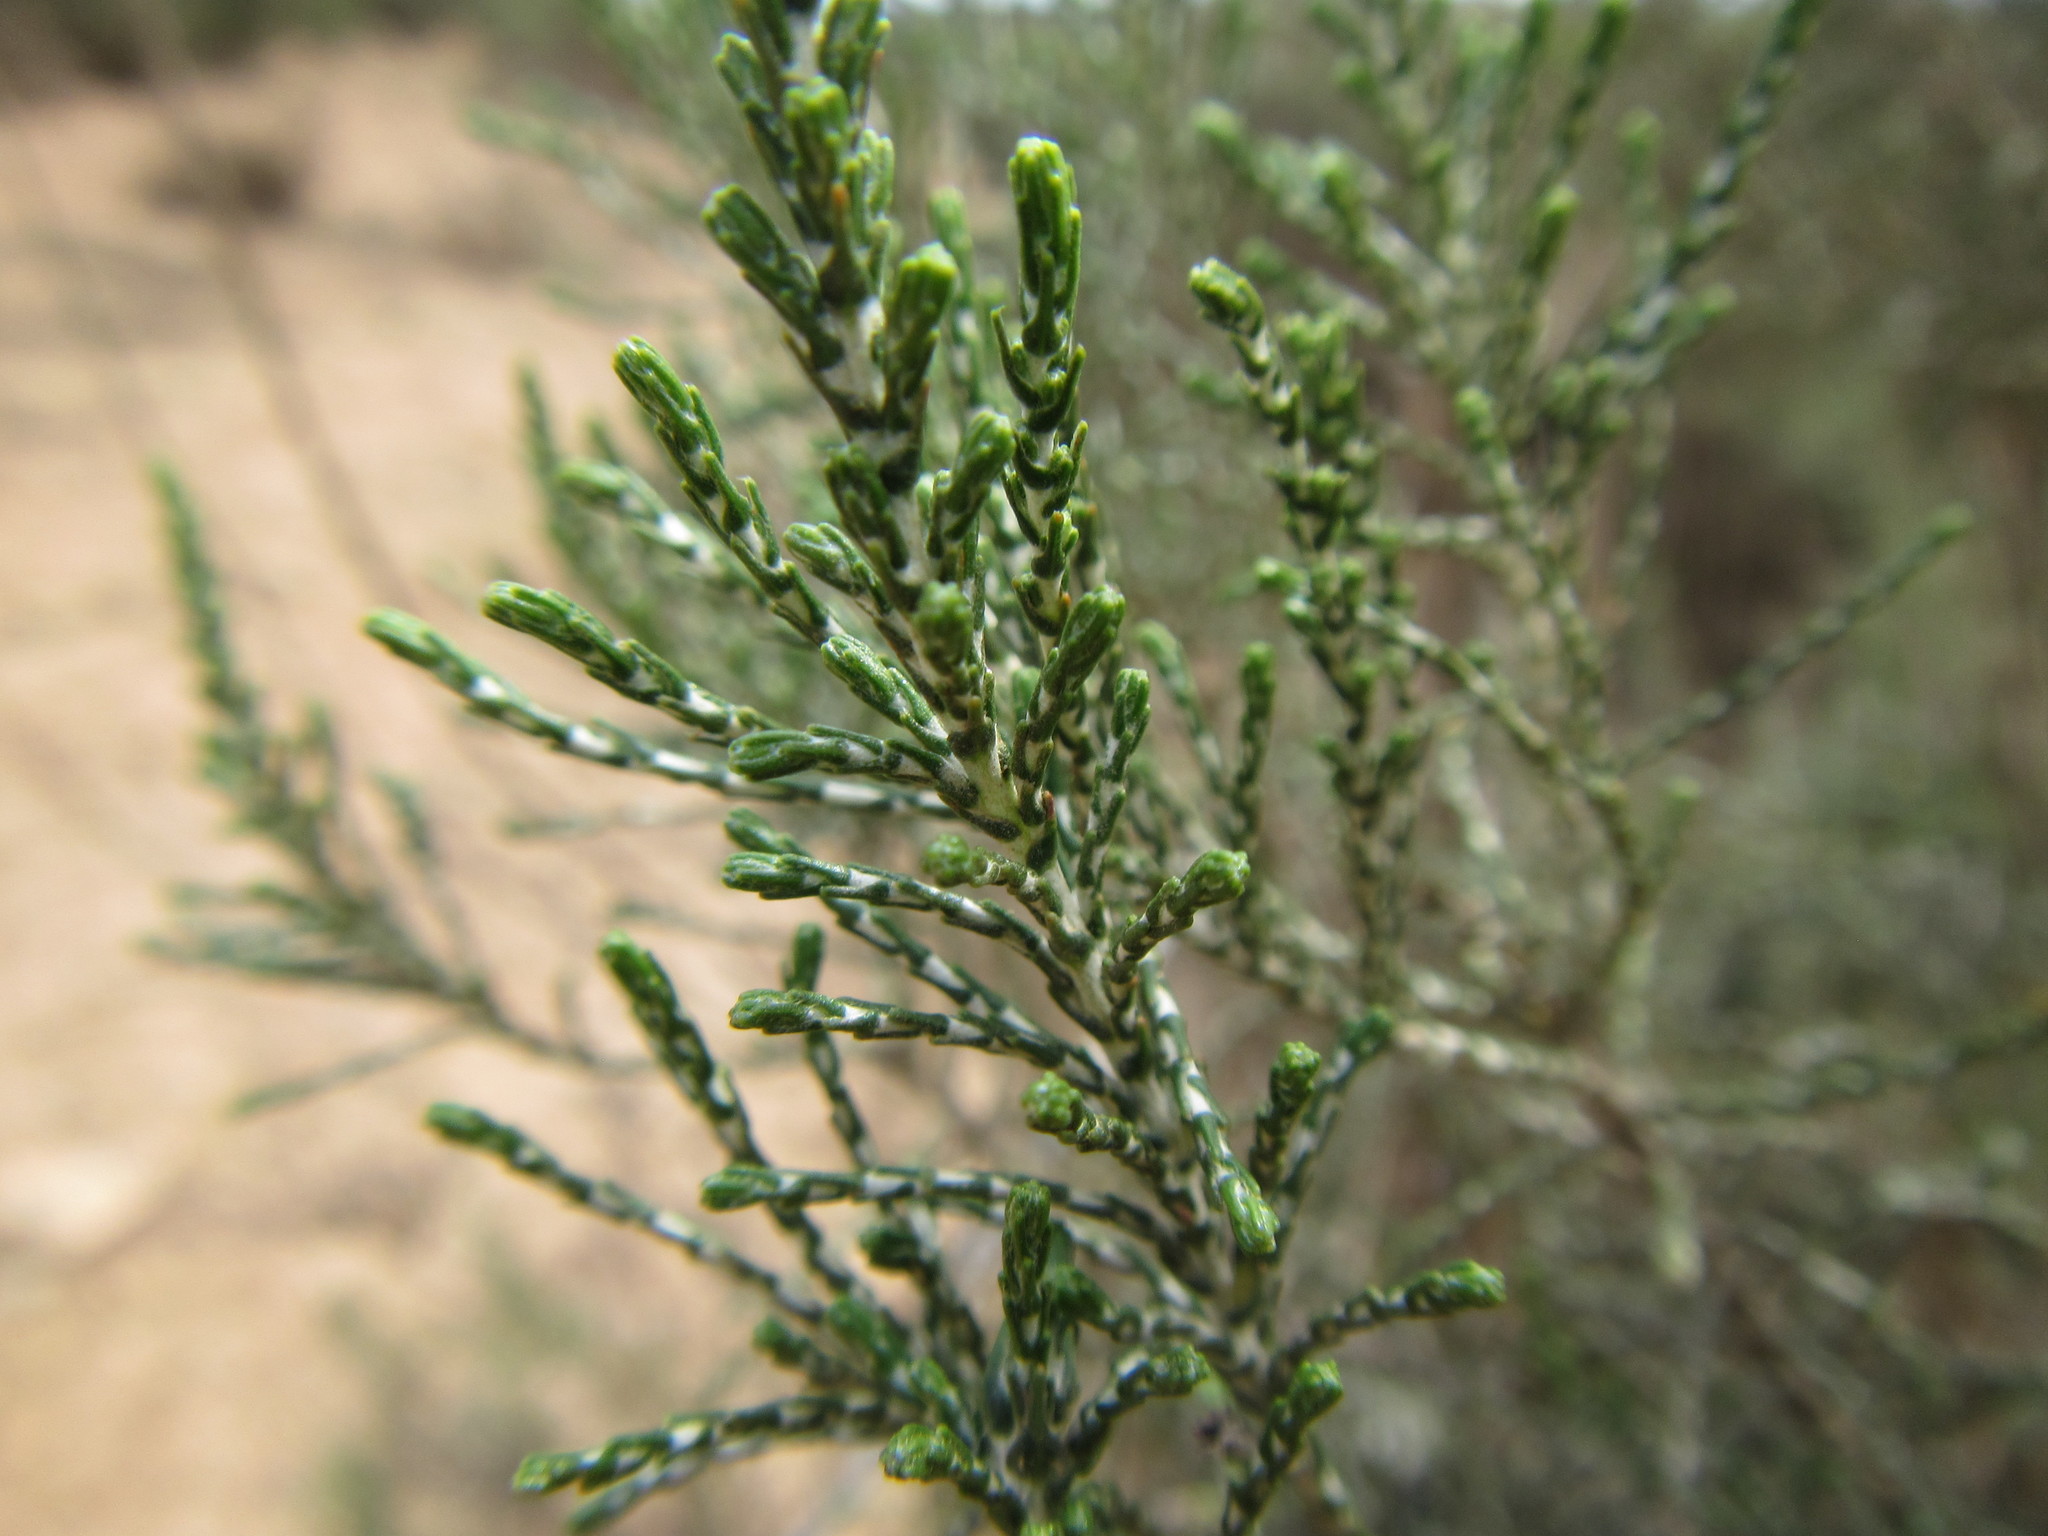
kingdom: Plantae
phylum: Tracheophyta
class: Magnoliopsida
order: Asterales
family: Asteraceae
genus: Dicerothamnus
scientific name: Dicerothamnus rhinocerotis
